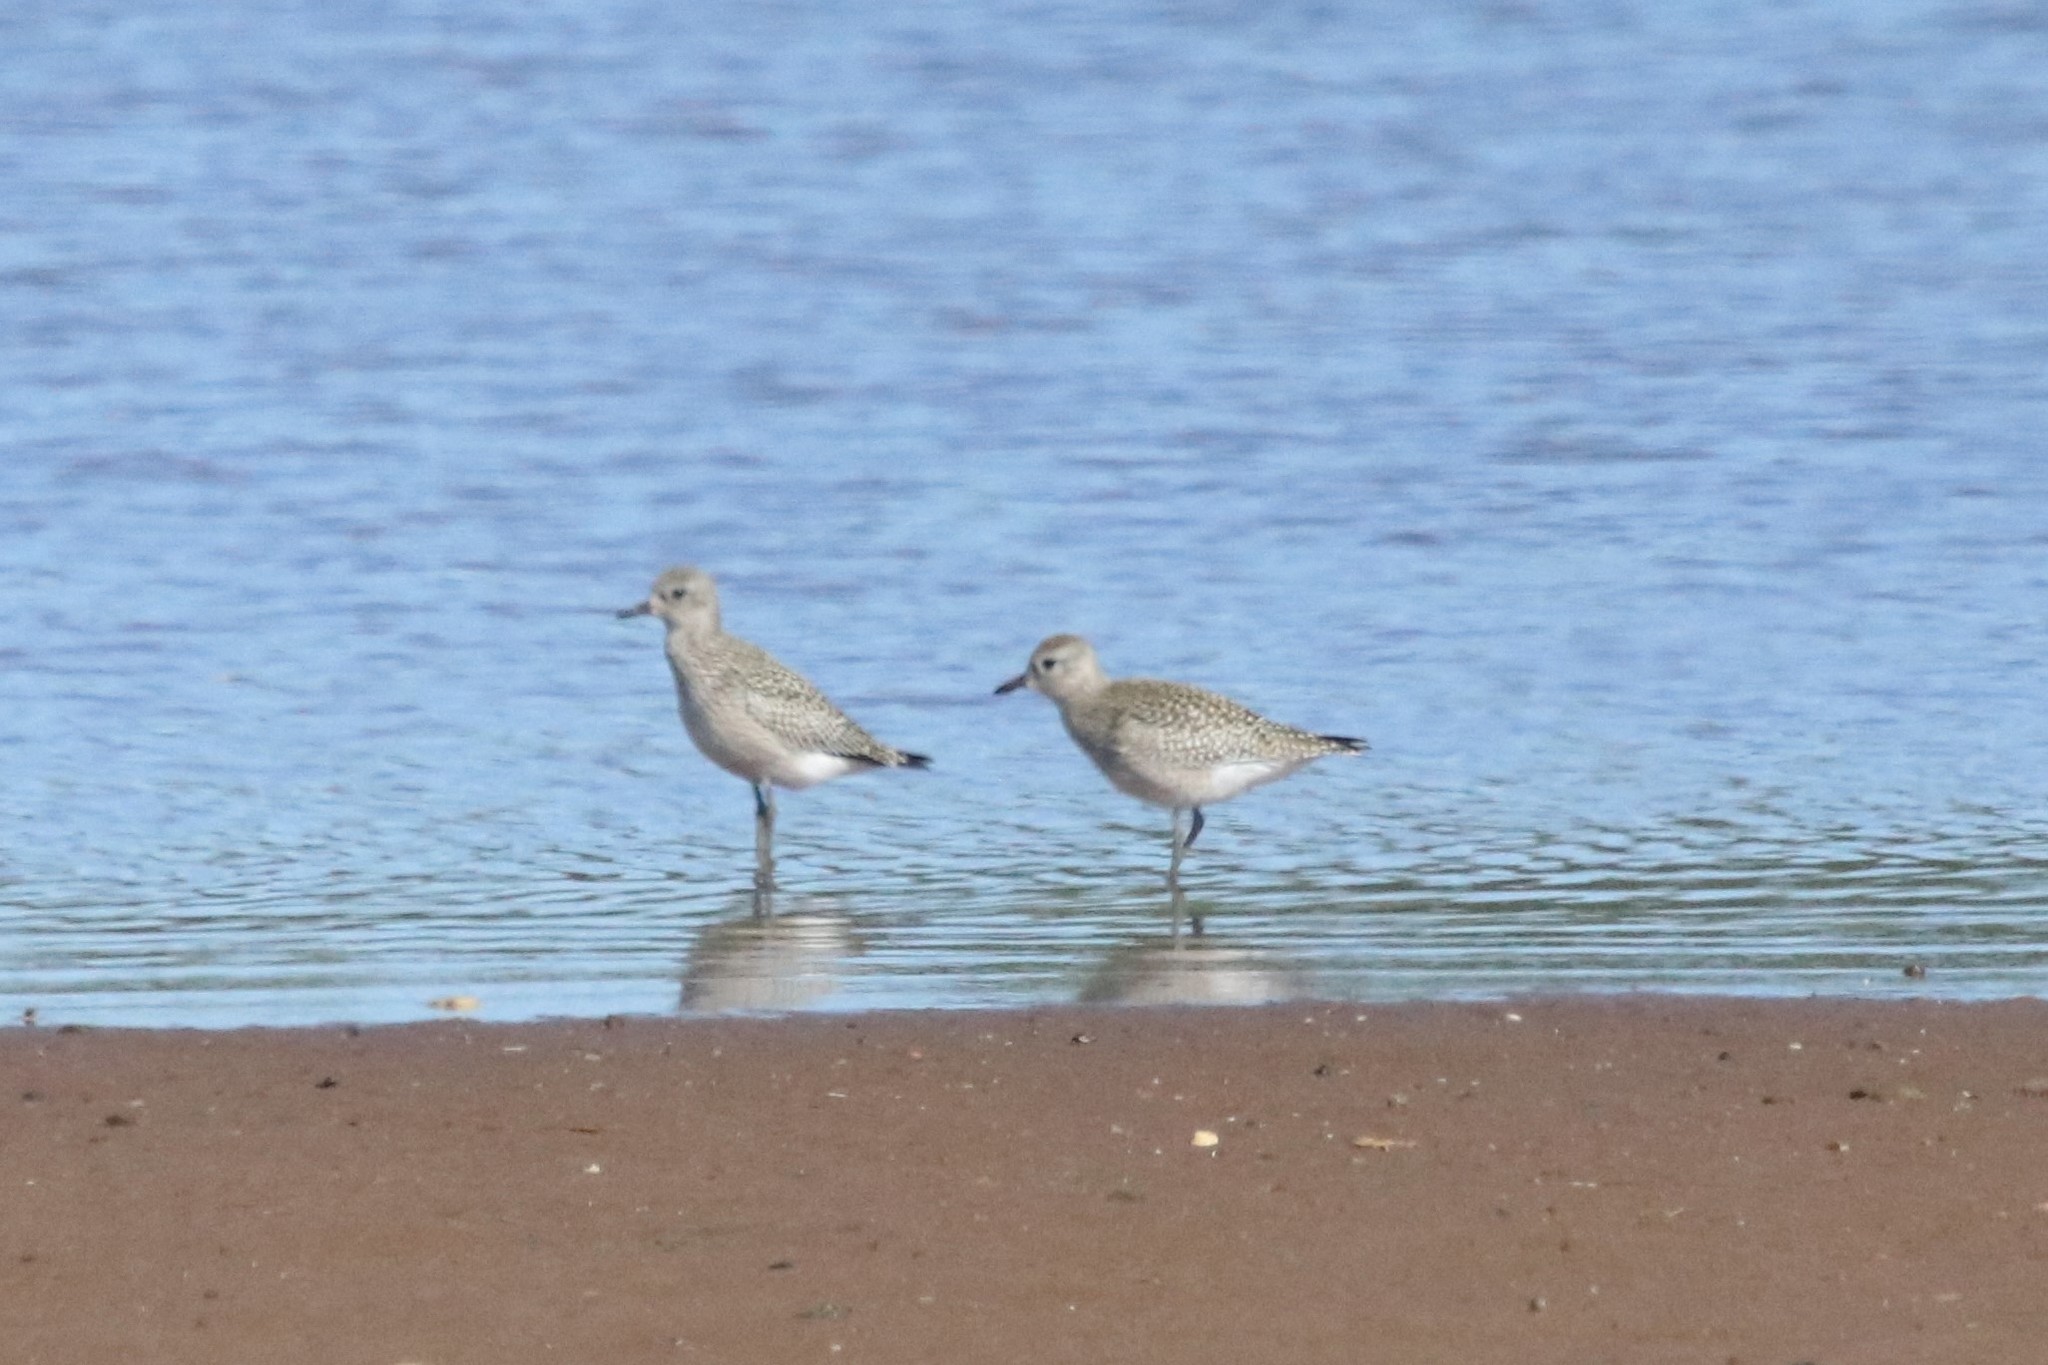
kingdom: Animalia
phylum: Chordata
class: Aves
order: Charadriiformes
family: Charadriidae
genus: Pluvialis
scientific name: Pluvialis squatarola
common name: Grey plover
